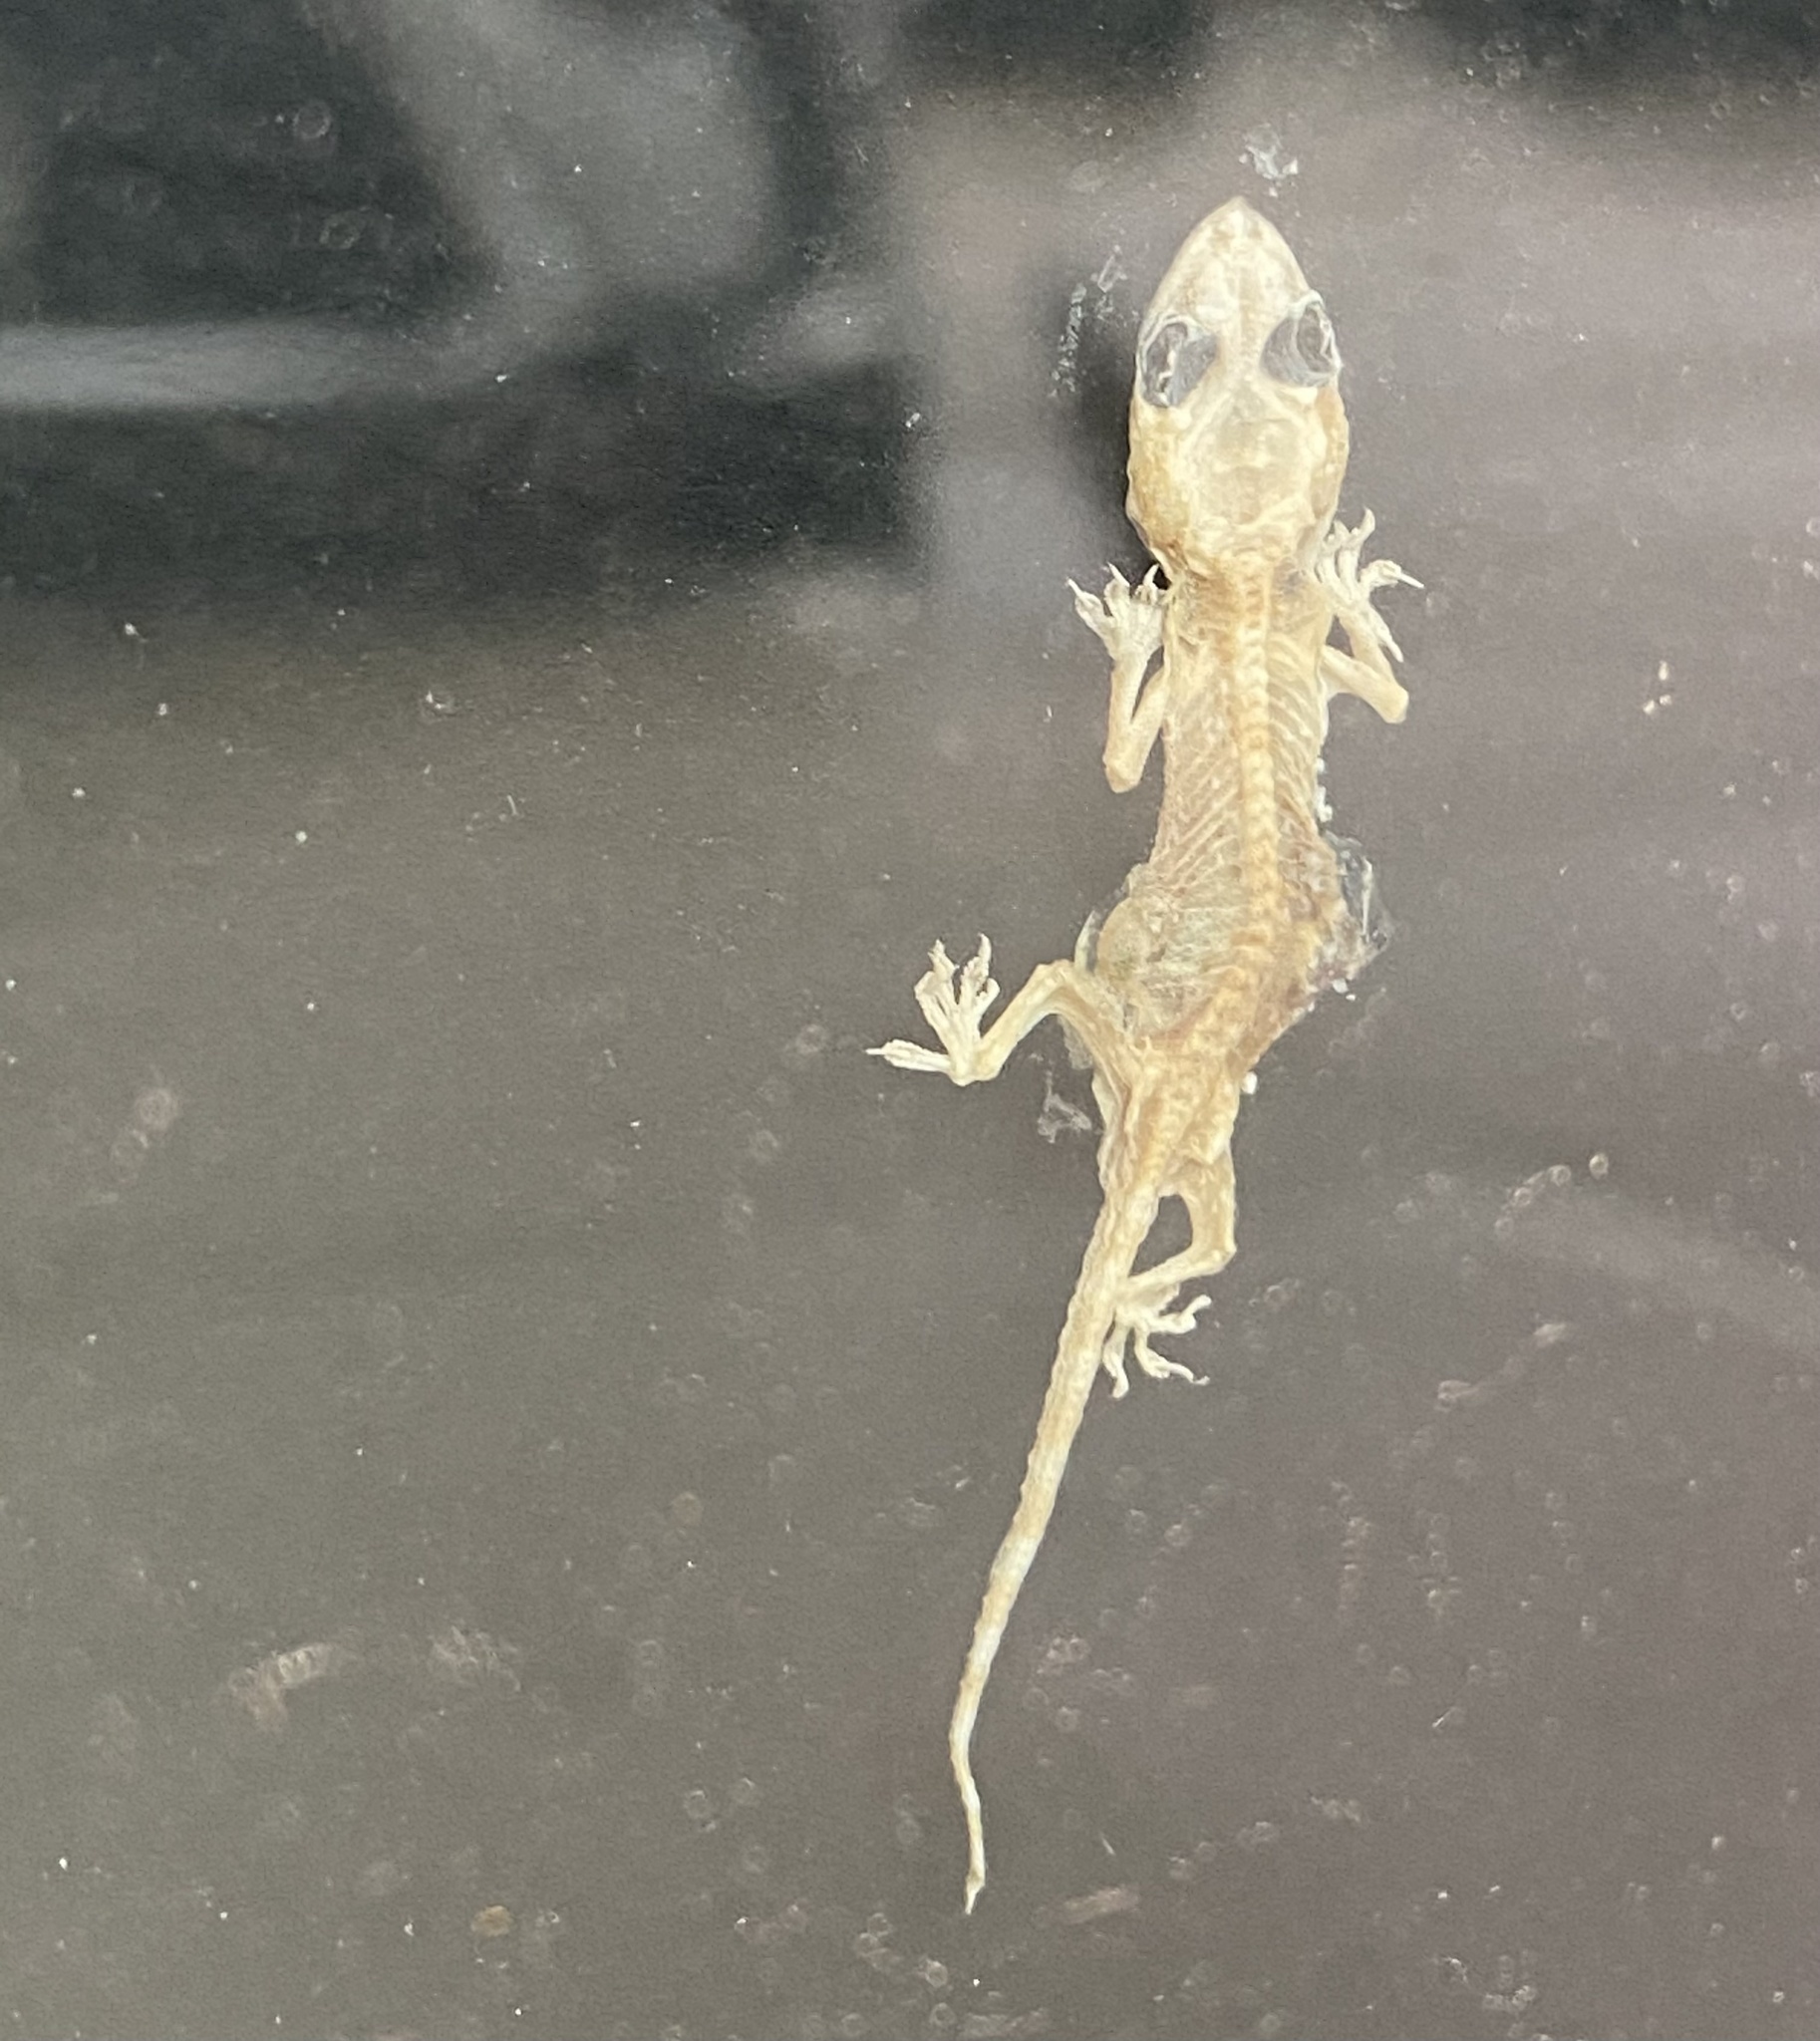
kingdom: Animalia
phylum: Chordata
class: Squamata
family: Gekkonidae
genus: Hemidactylus
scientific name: Hemidactylus turcicus
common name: Turkish gecko
